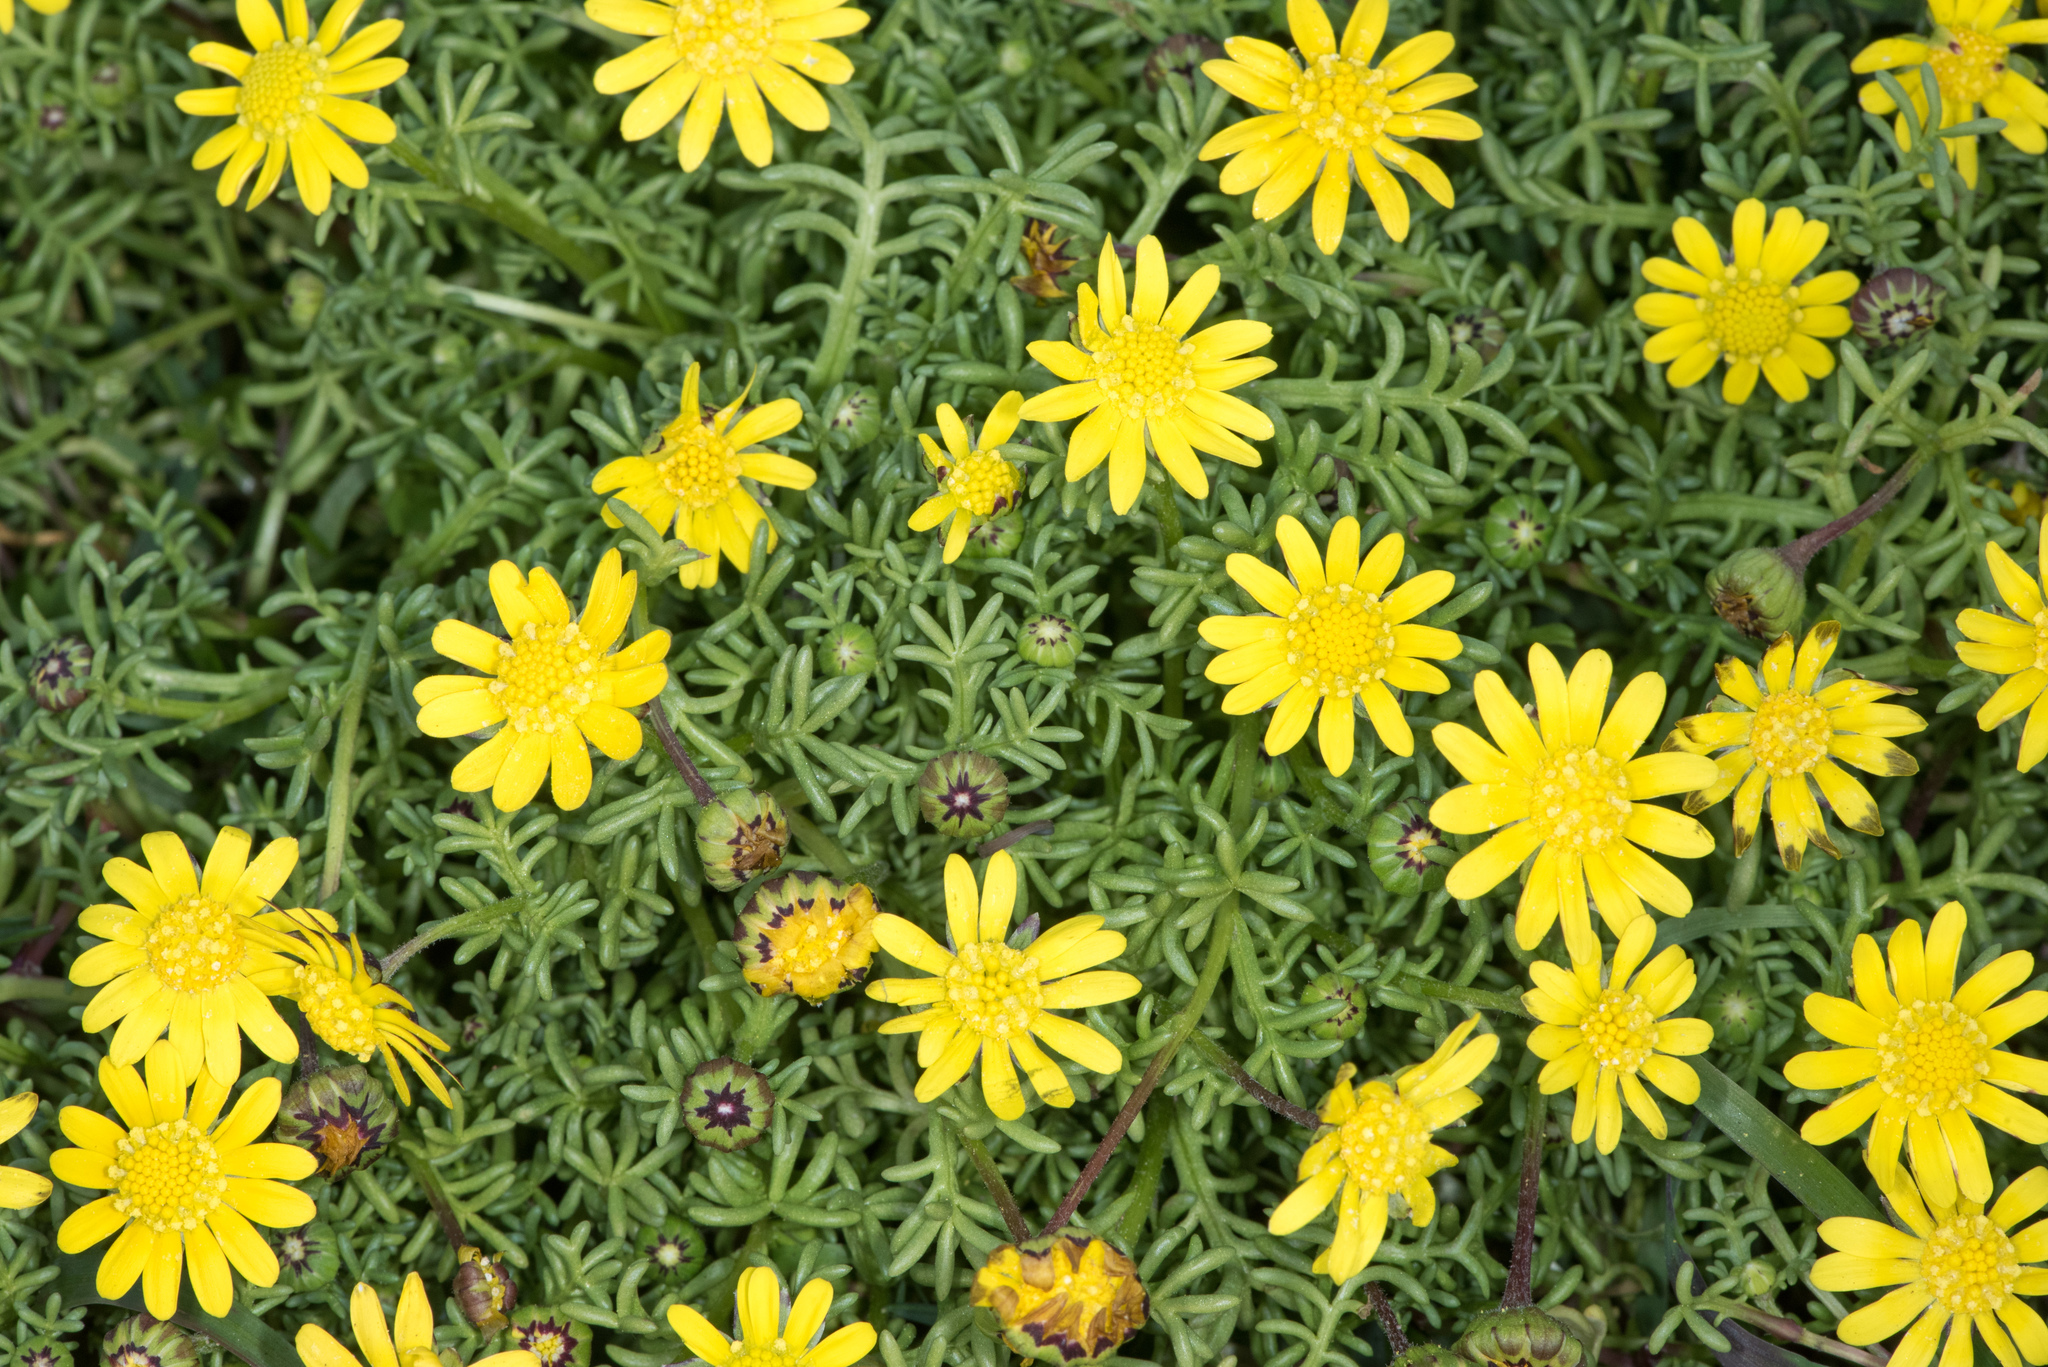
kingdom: Plantae
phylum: Tracheophyta
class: Magnoliopsida
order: Asterales
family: Asteraceae
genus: Blennosperma
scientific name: Blennosperma nanum
